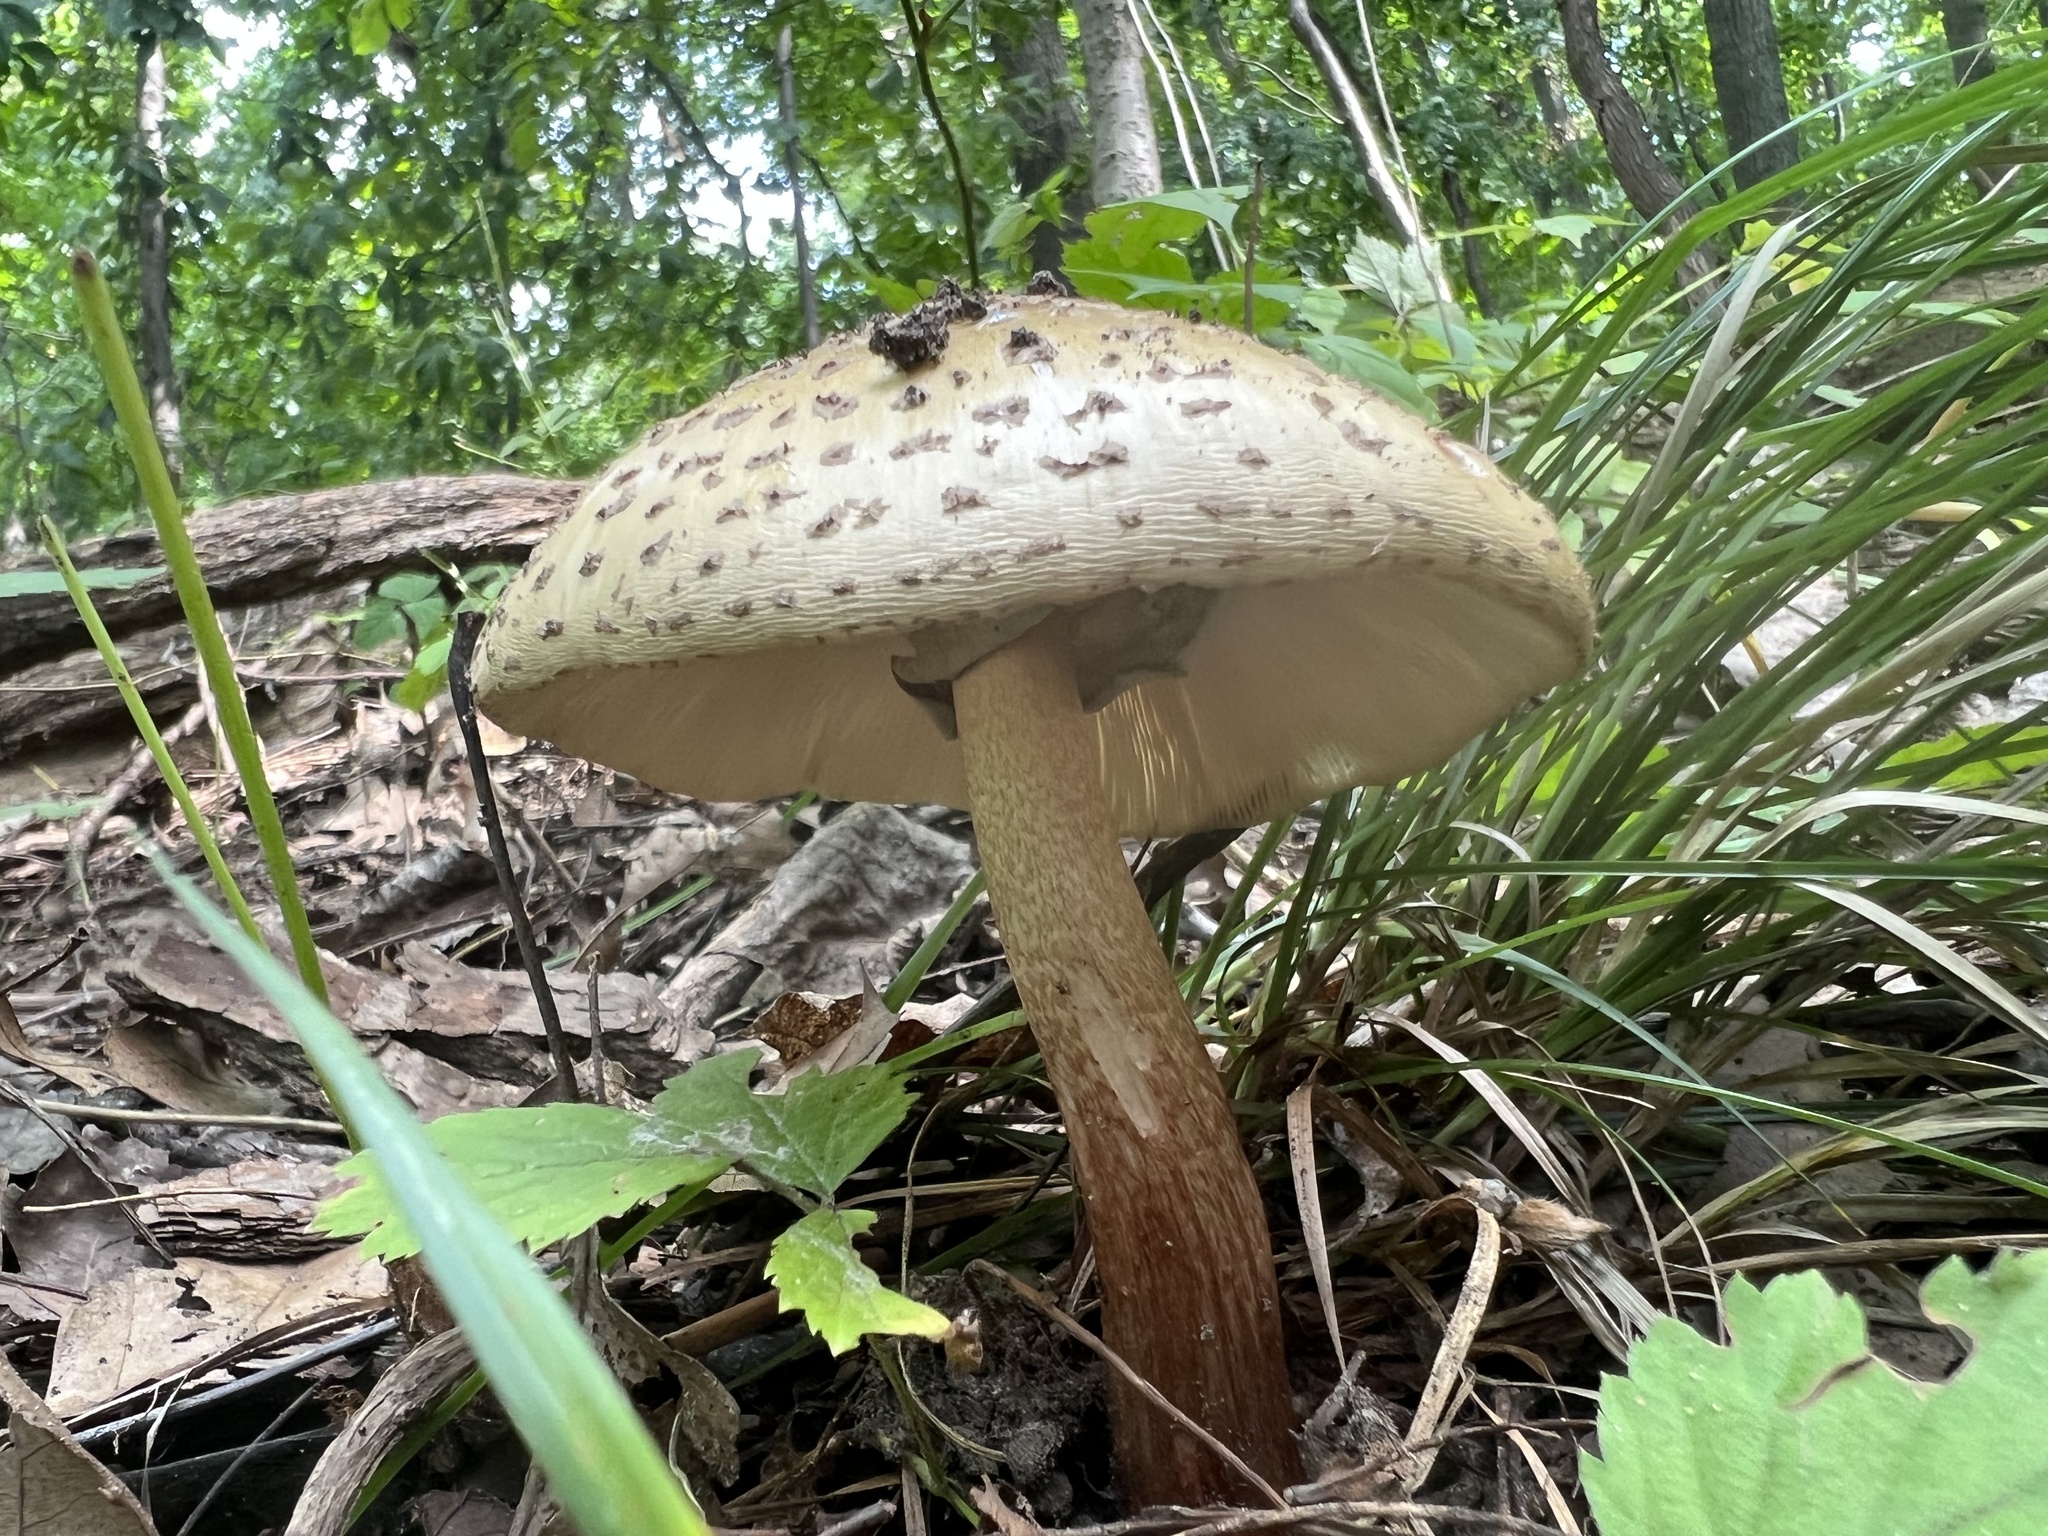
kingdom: Fungi
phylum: Basidiomycota
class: Agaricomycetes
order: Agaricales
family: Amanitaceae
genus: Amanita
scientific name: Amanita rubescens
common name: Blusher
